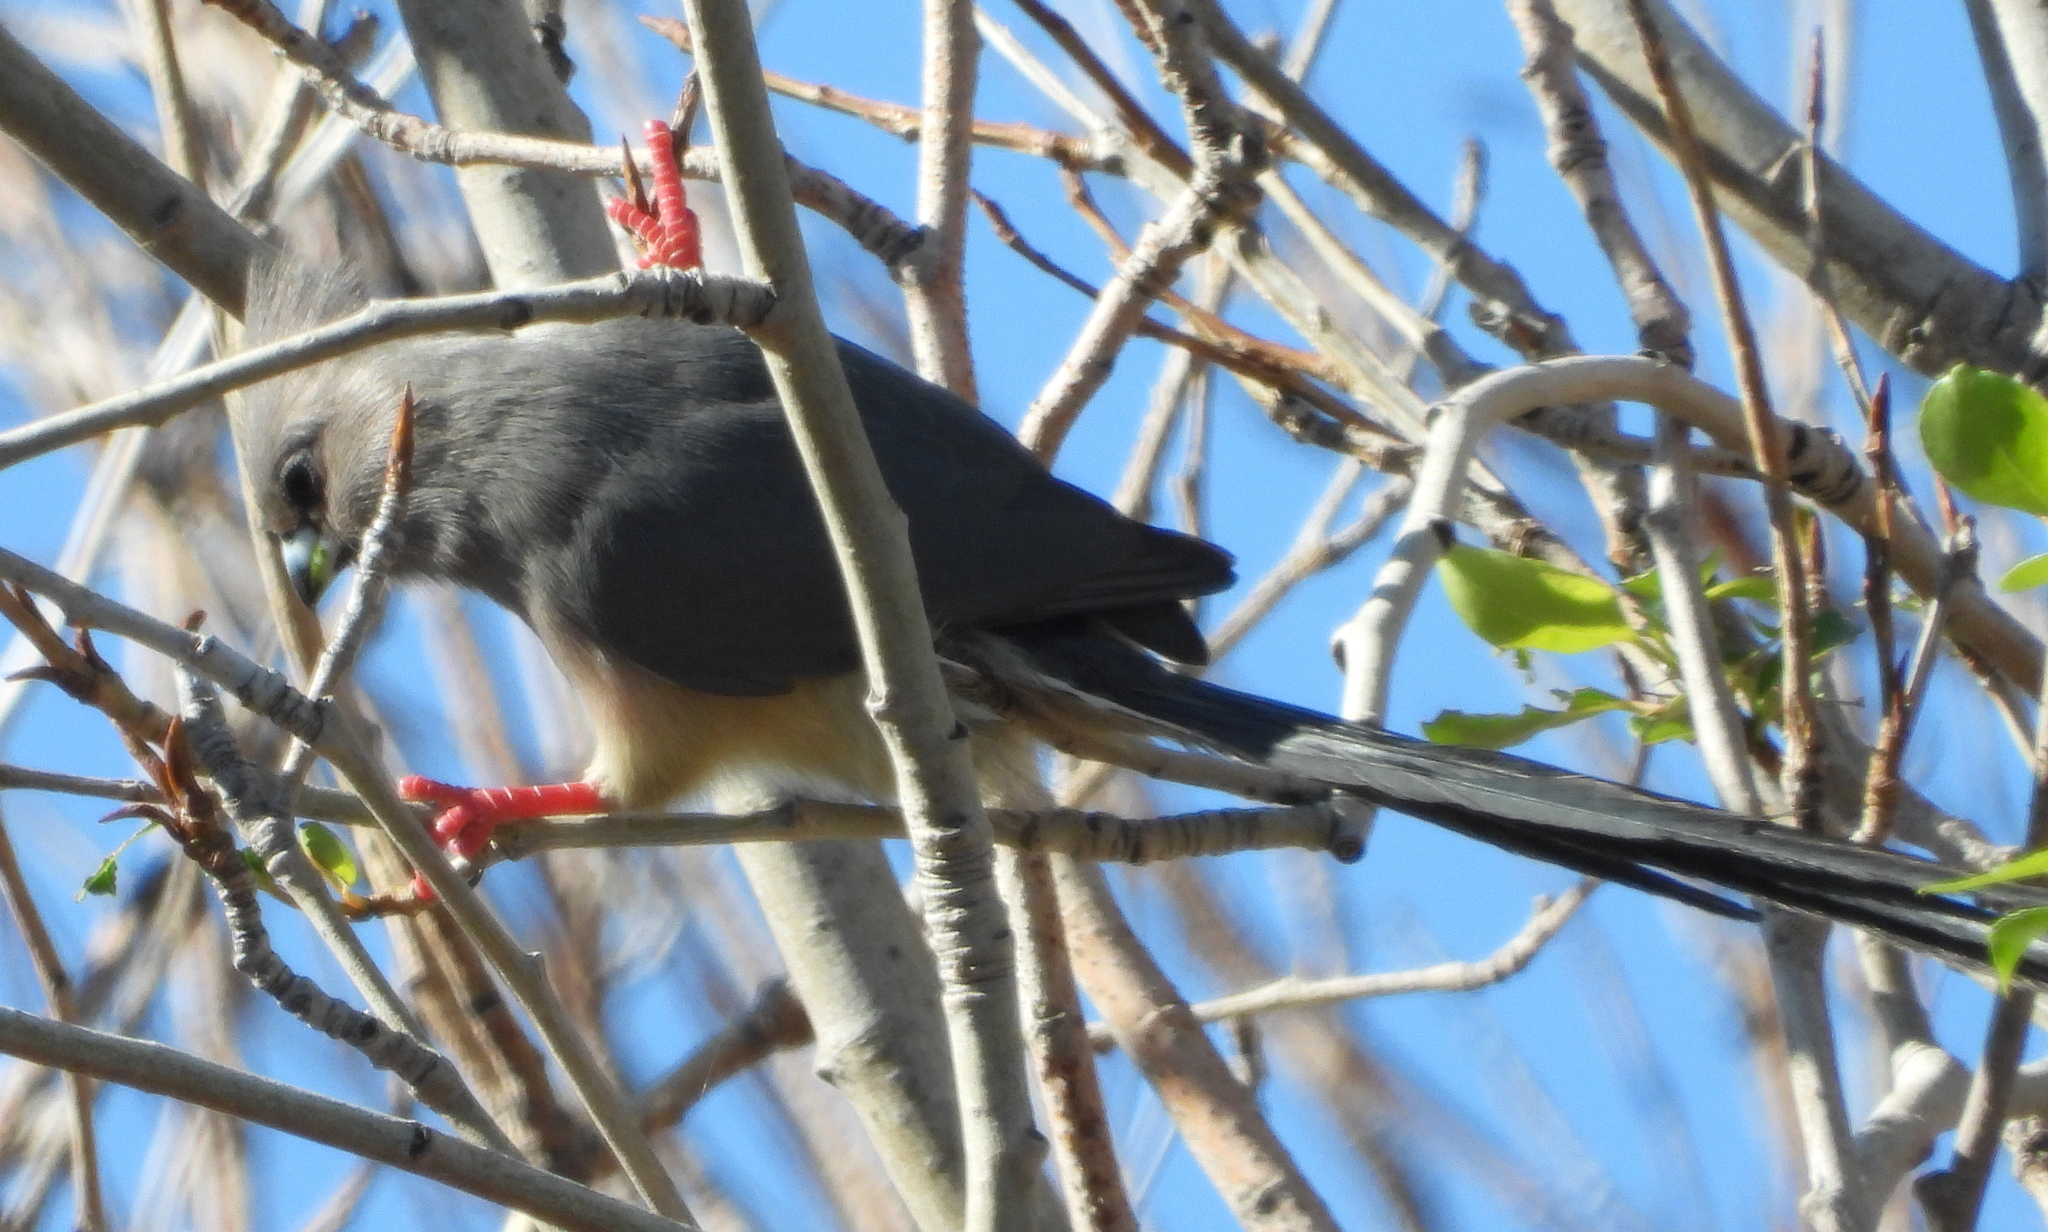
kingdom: Animalia
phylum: Chordata
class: Aves
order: Coliiformes
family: Coliidae
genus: Colius
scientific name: Colius colius
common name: White-backed mousebird
